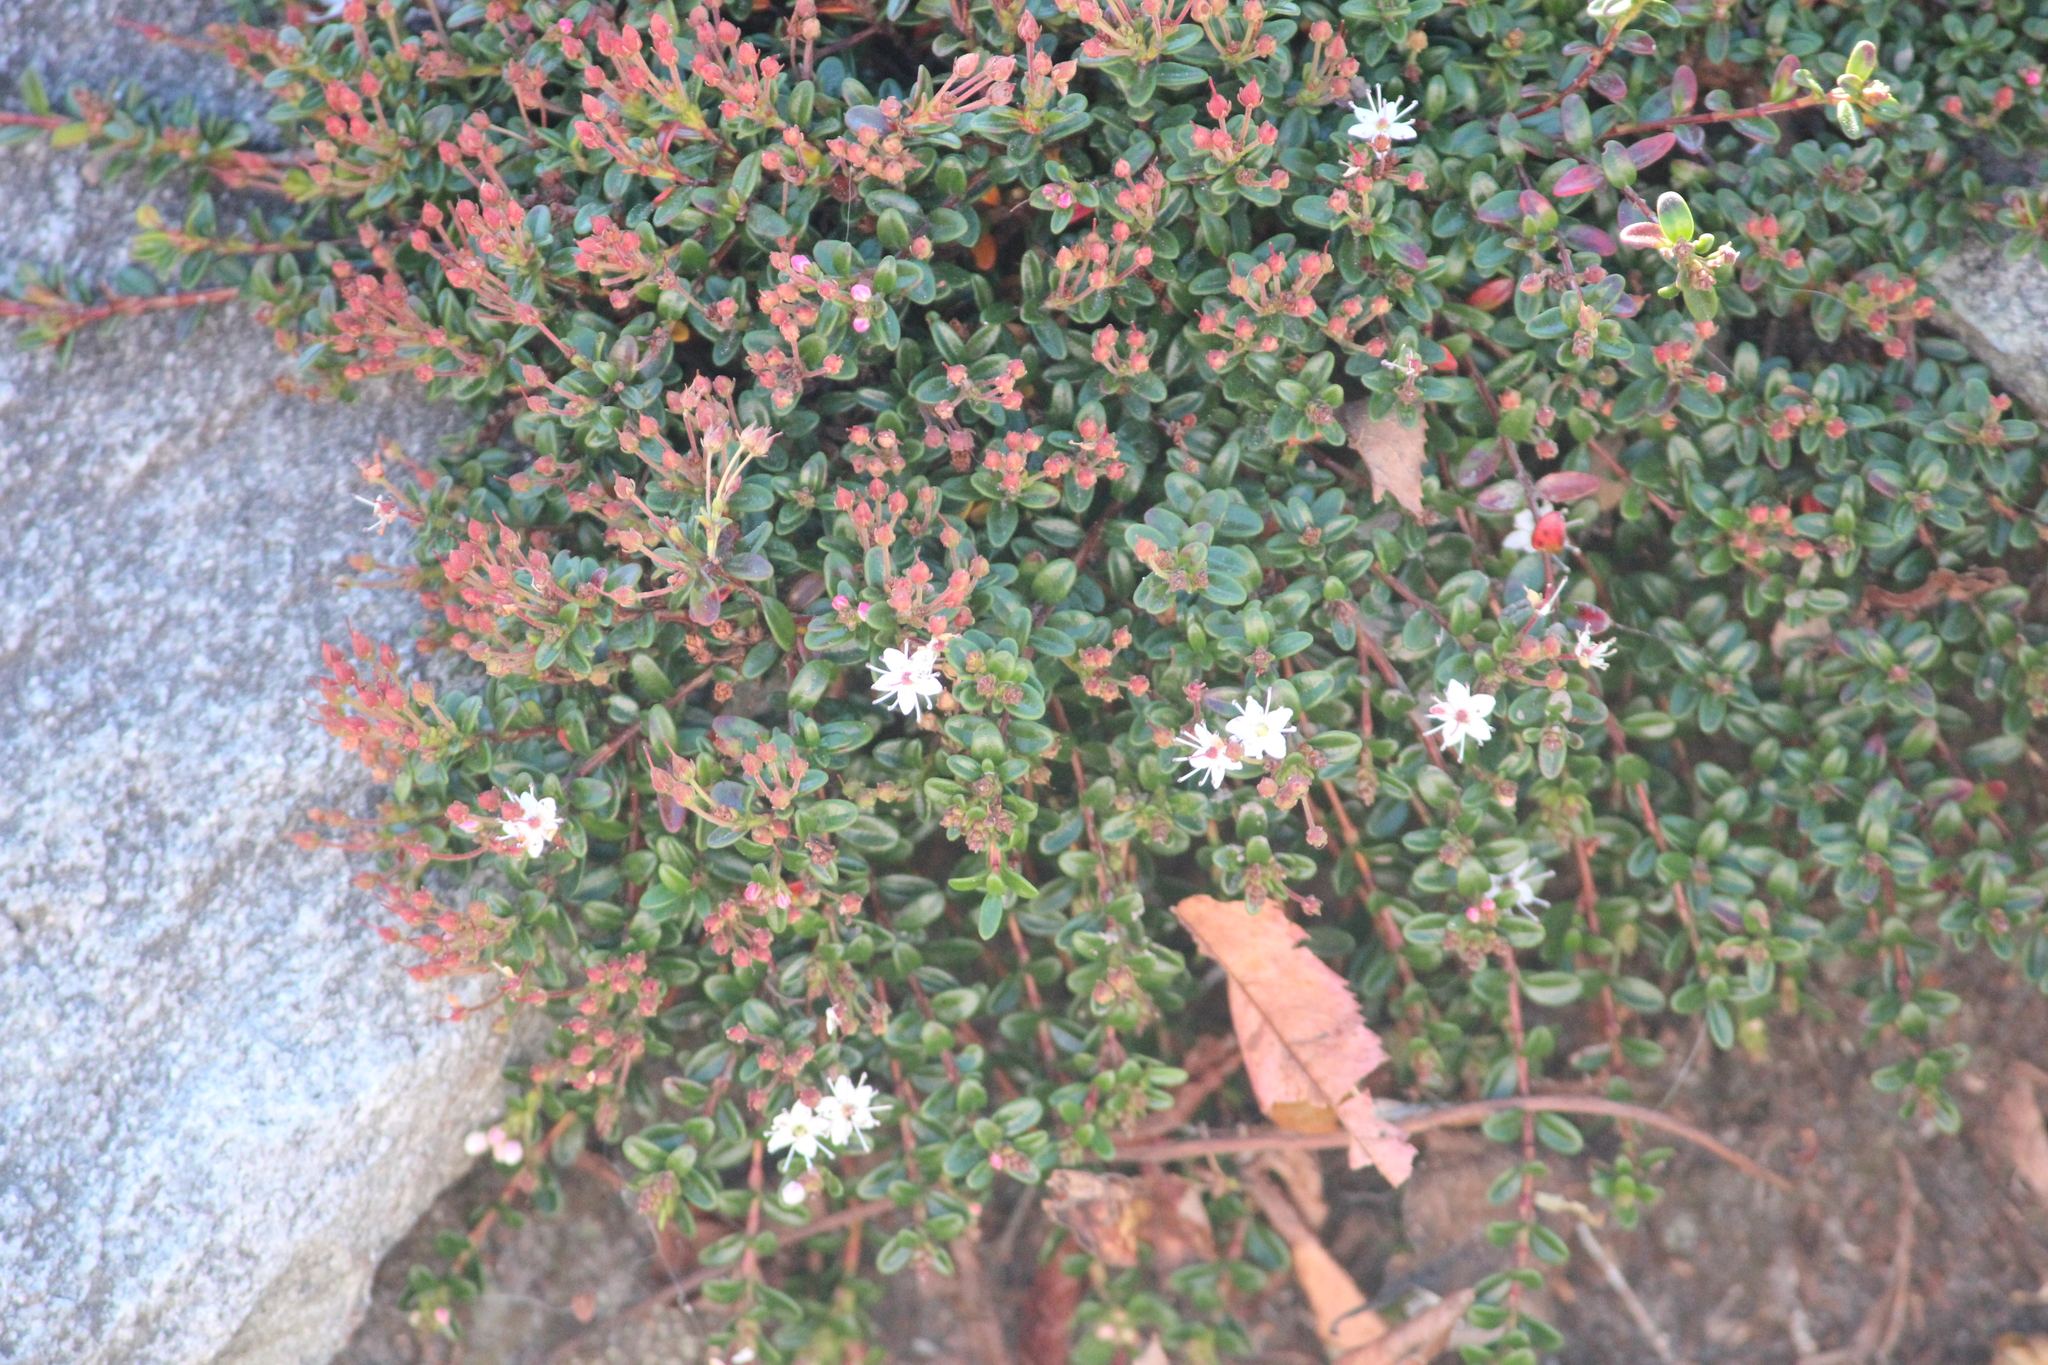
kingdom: Plantae
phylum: Tracheophyta
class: Magnoliopsida
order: Ericales
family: Ericaceae
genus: Kalmia
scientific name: Kalmia buxifolia
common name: Sandmyrtle
